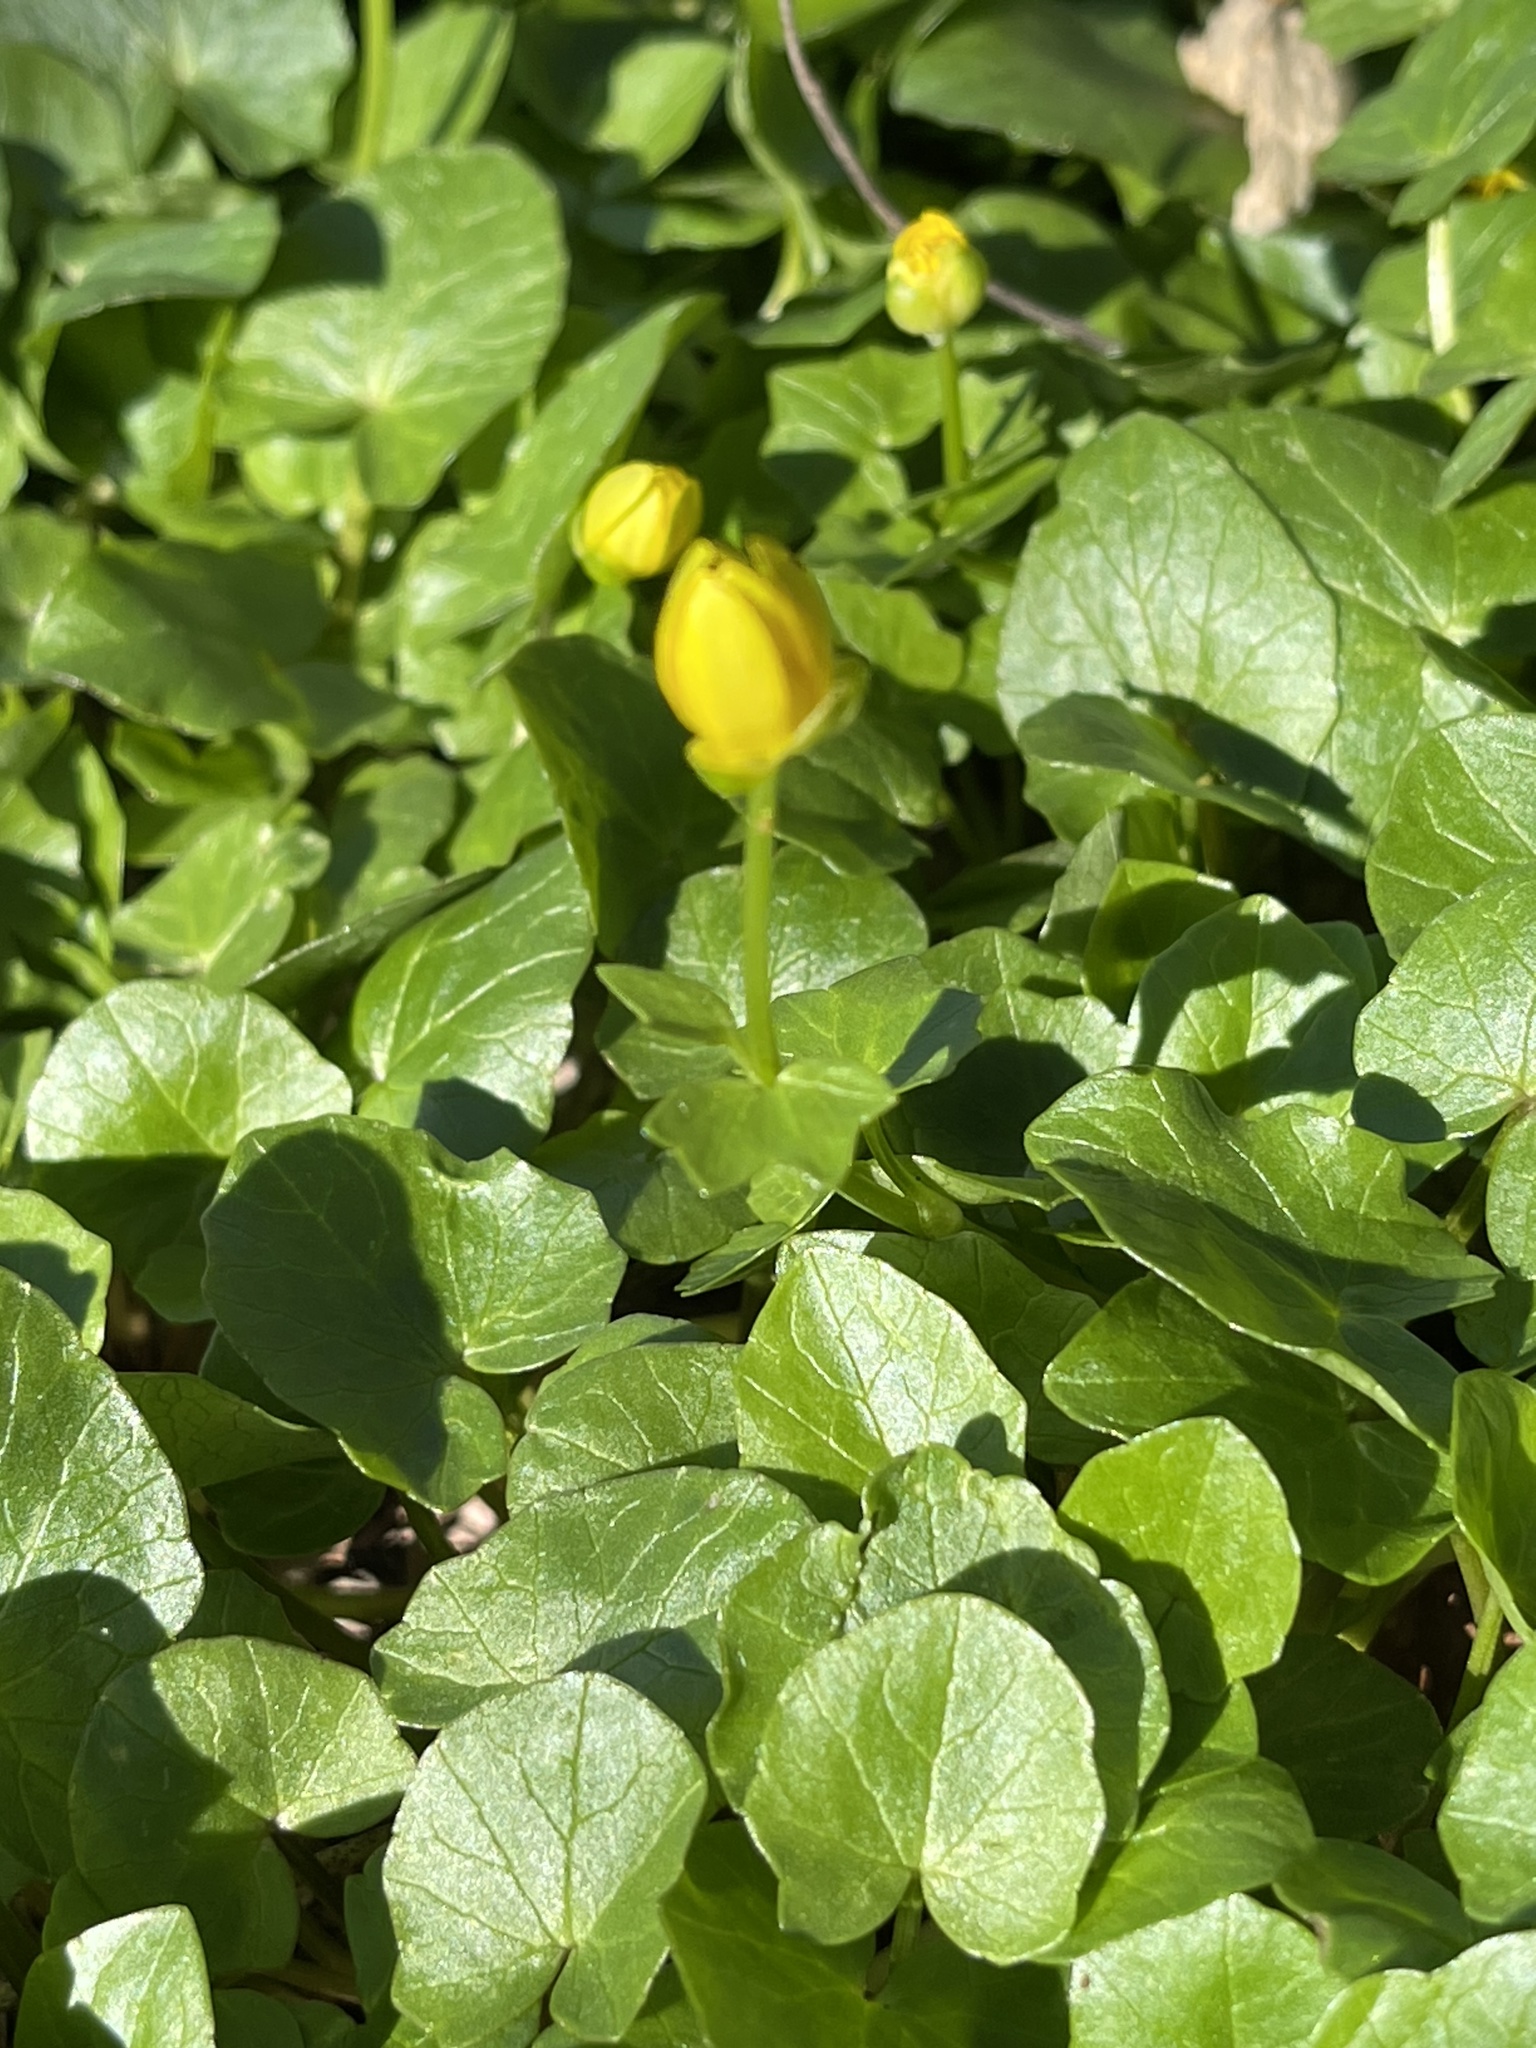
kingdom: Plantae
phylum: Tracheophyta
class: Magnoliopsida
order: Ranunculales
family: Ranunculaceae
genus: Ficaria
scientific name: Ficaria verna
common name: Lesser celandine
